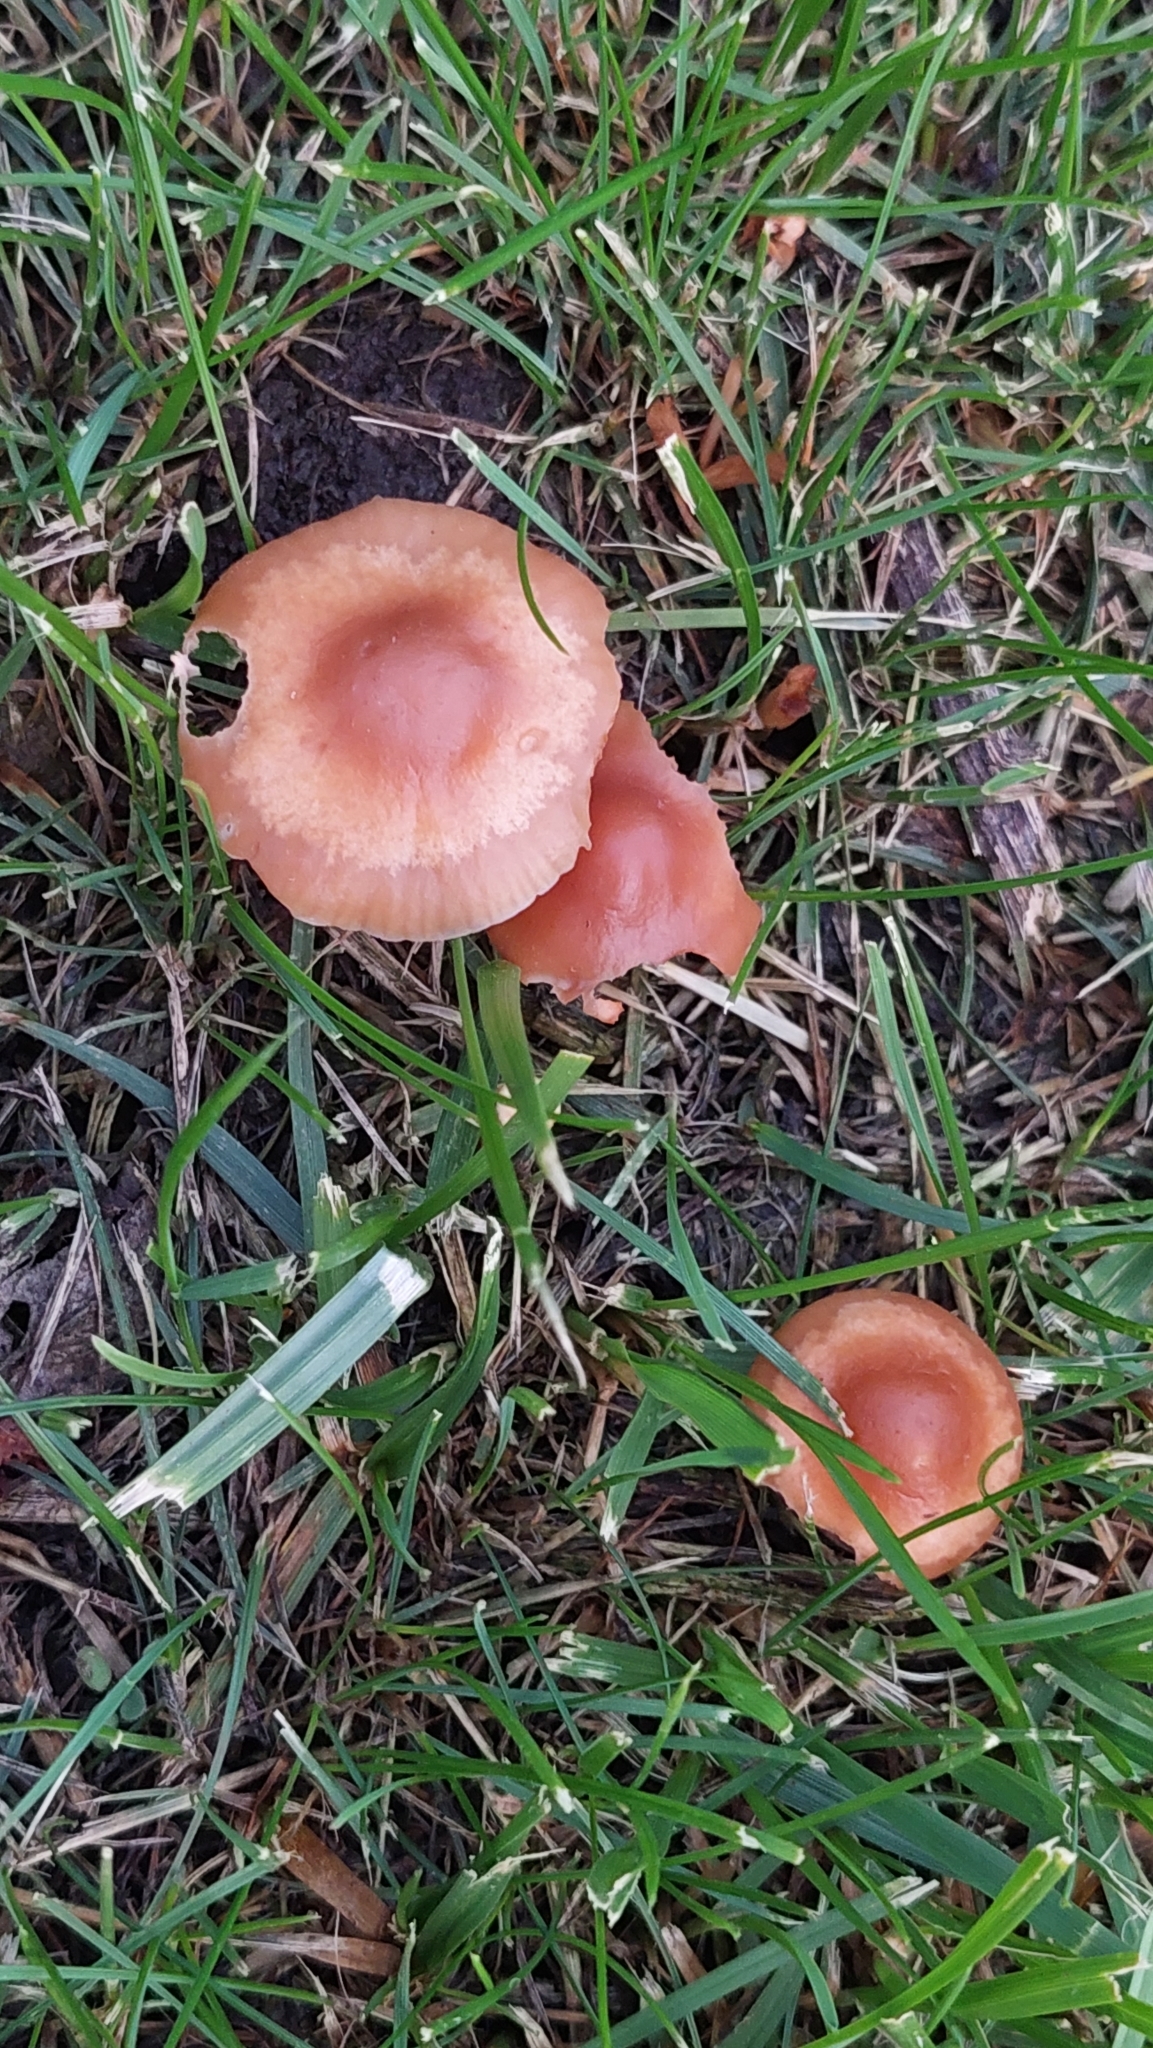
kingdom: Fungi
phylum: Basidiomycota
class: Agaricomycetes
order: Agaricales
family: Marasmiaceae
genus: Marasmius
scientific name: Marasmius oreades
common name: Fairy ring champignon
